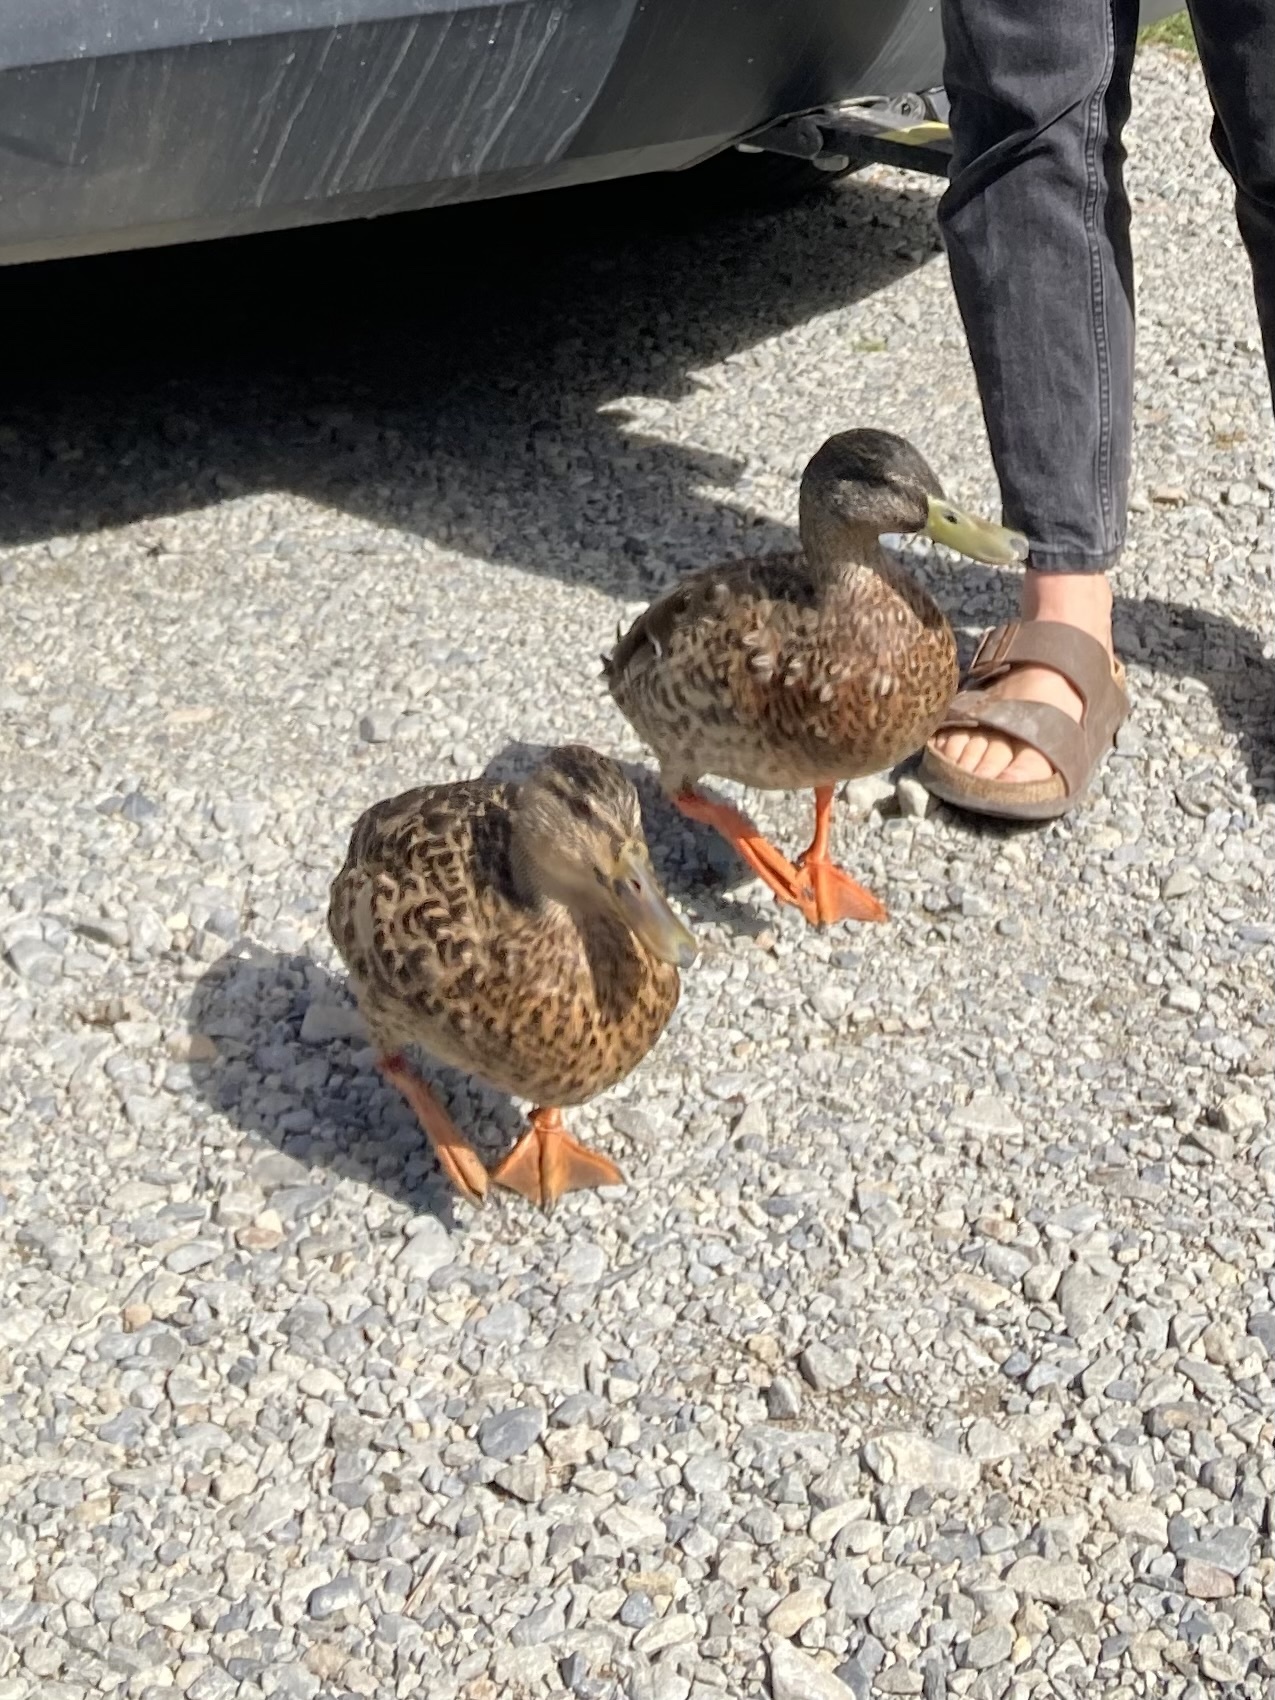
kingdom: Animalia
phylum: Chordata
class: Aves
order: Anseriformes
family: Anatidae
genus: Anas
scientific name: Anas platyrhynchos
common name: Mallard
